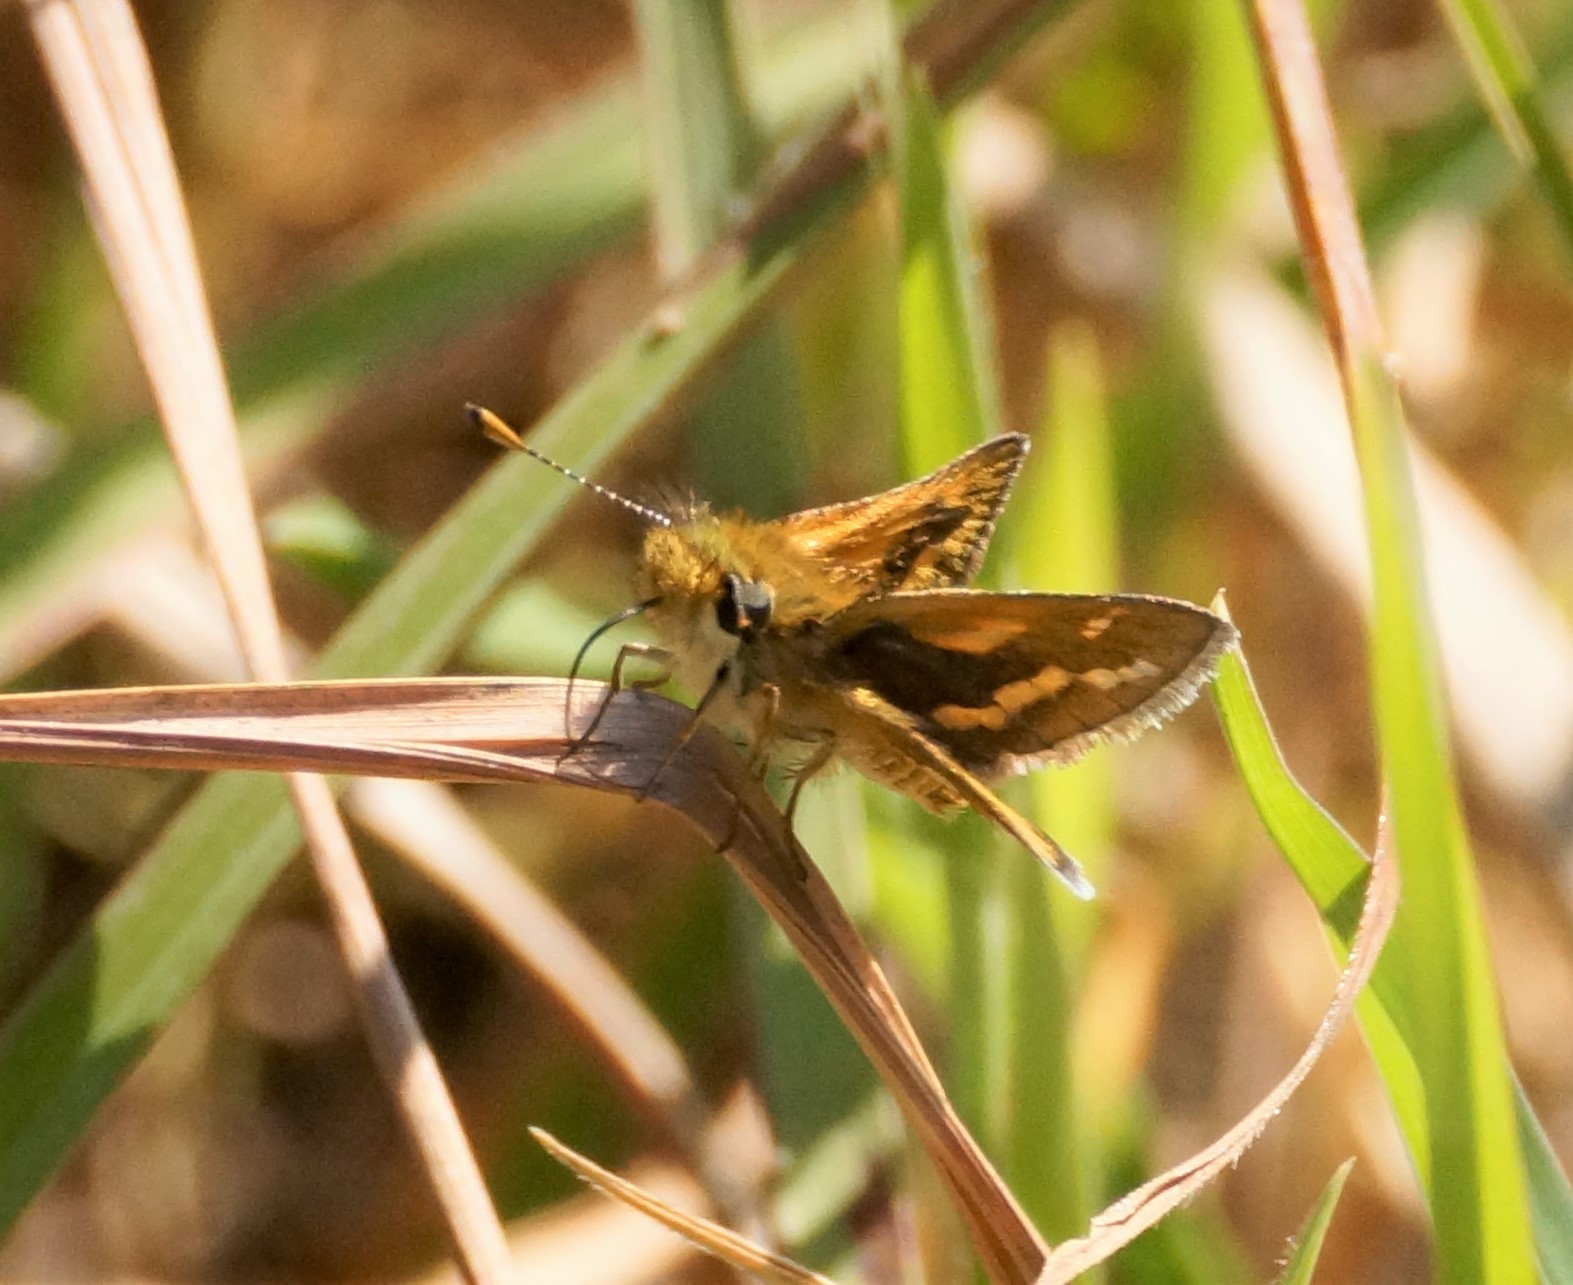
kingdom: Animalia
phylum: Arthropoda
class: Insecta
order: Lepidoptera
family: Hesperiidae
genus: Ocybadistes
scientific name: Ocybadistes walkeri
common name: Yellow-banded dart
